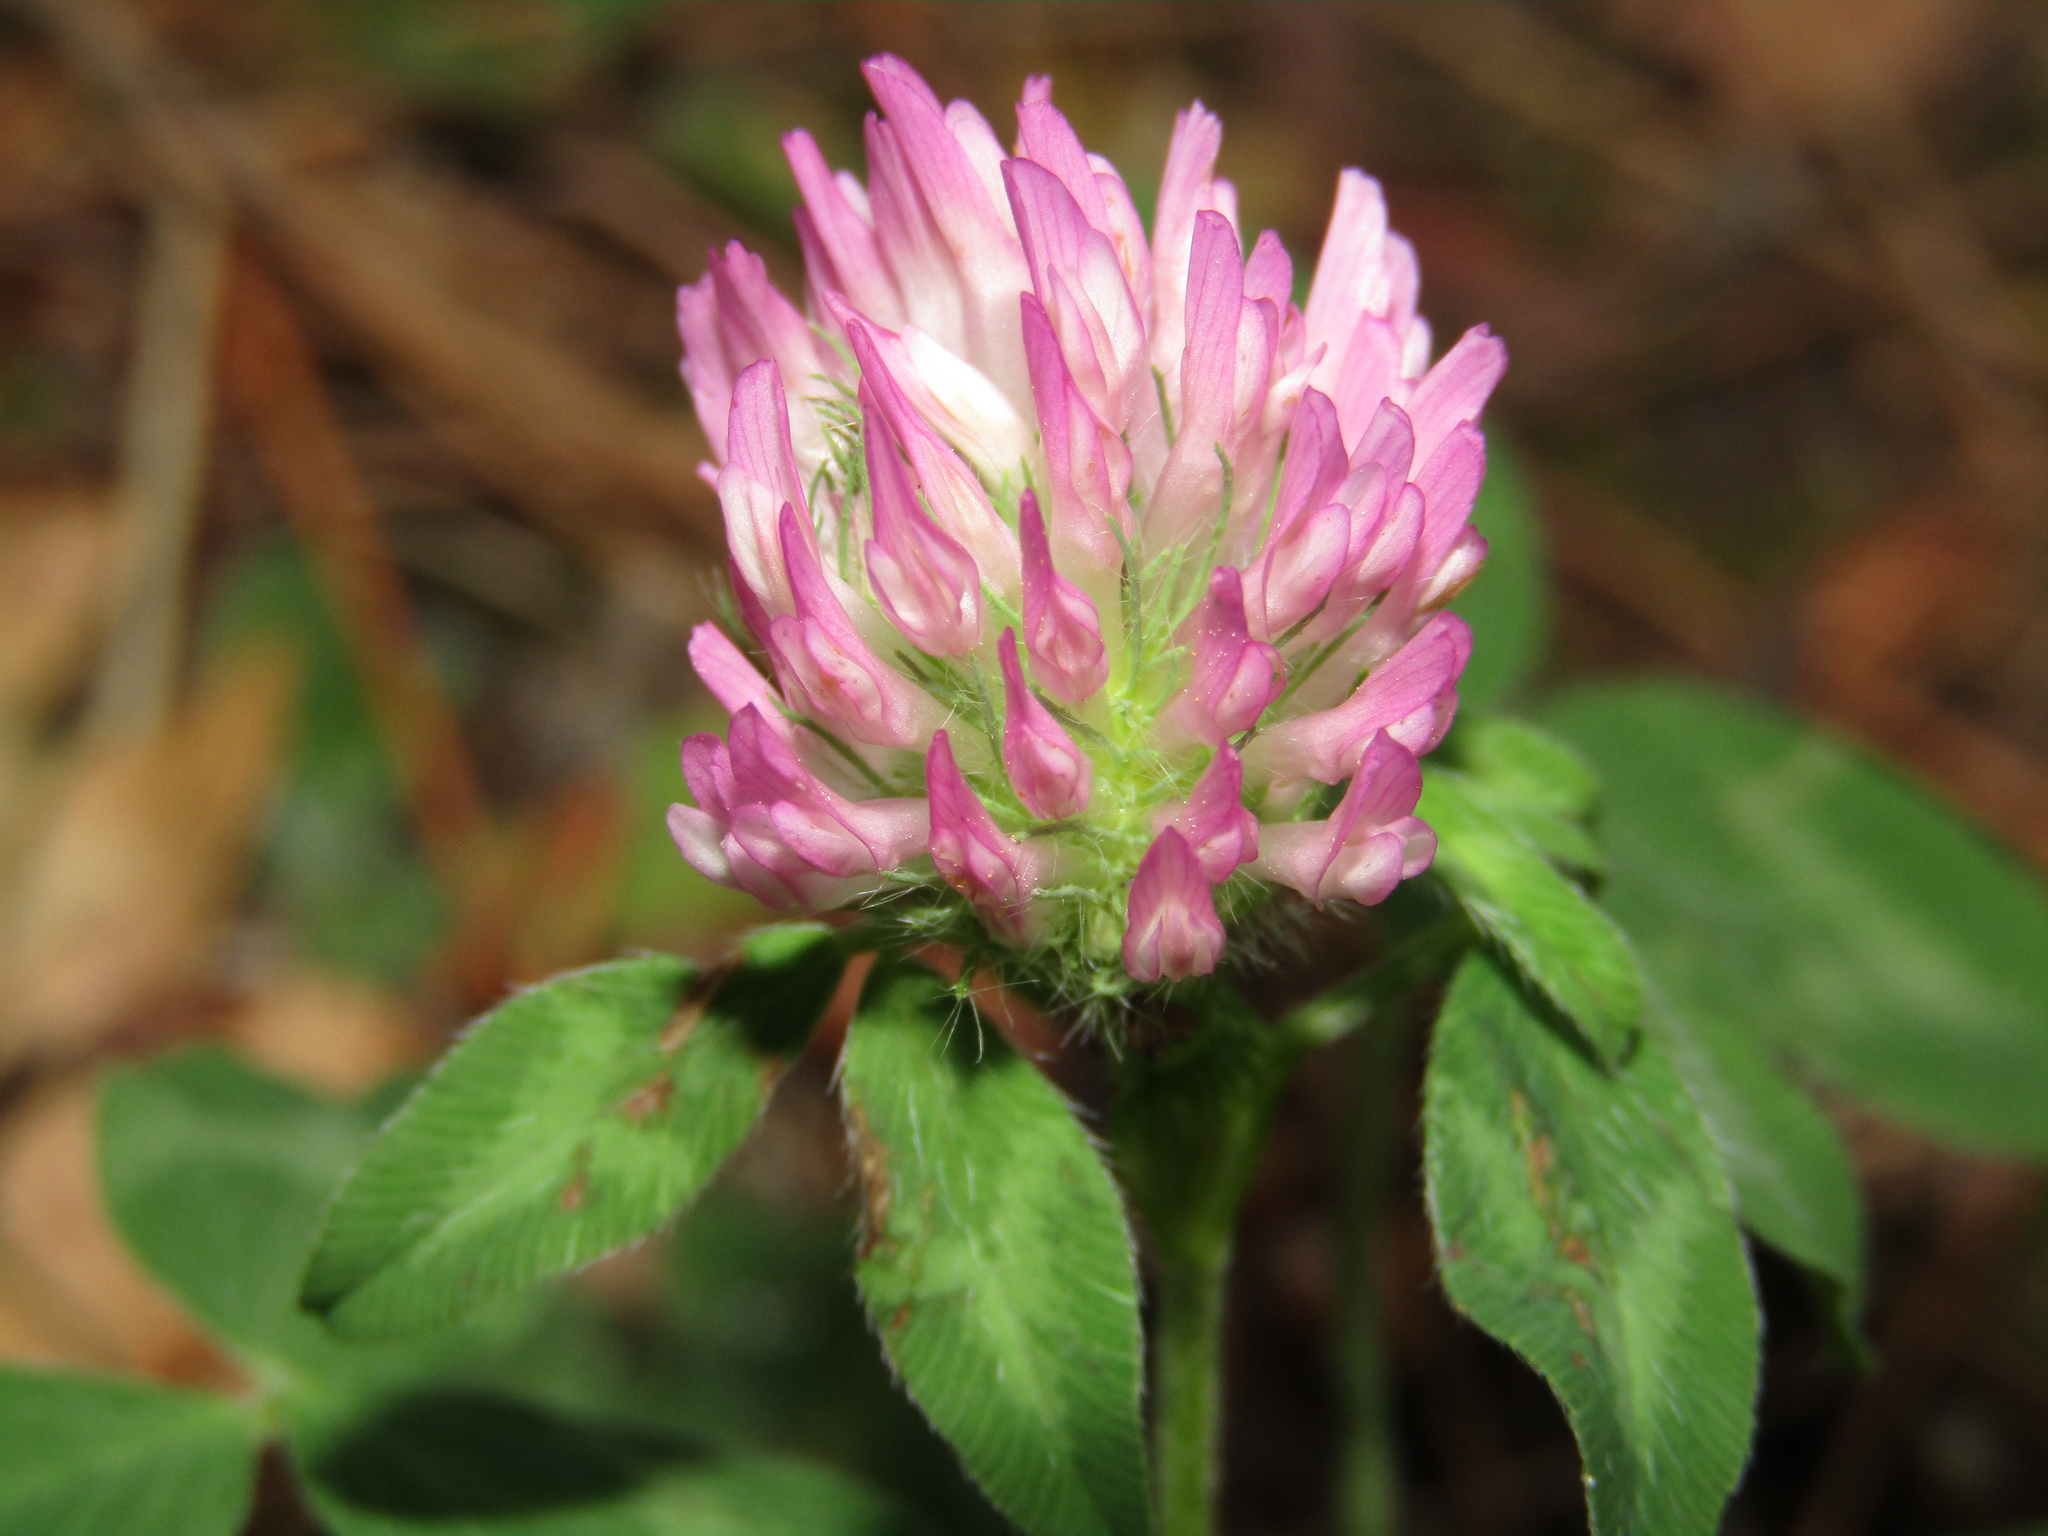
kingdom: Plantae
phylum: Tracheophyta
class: Magnoliopsida
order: Fabales
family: Fabaceae
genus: Trifolium
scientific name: Trifolium pratense
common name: Red clover
